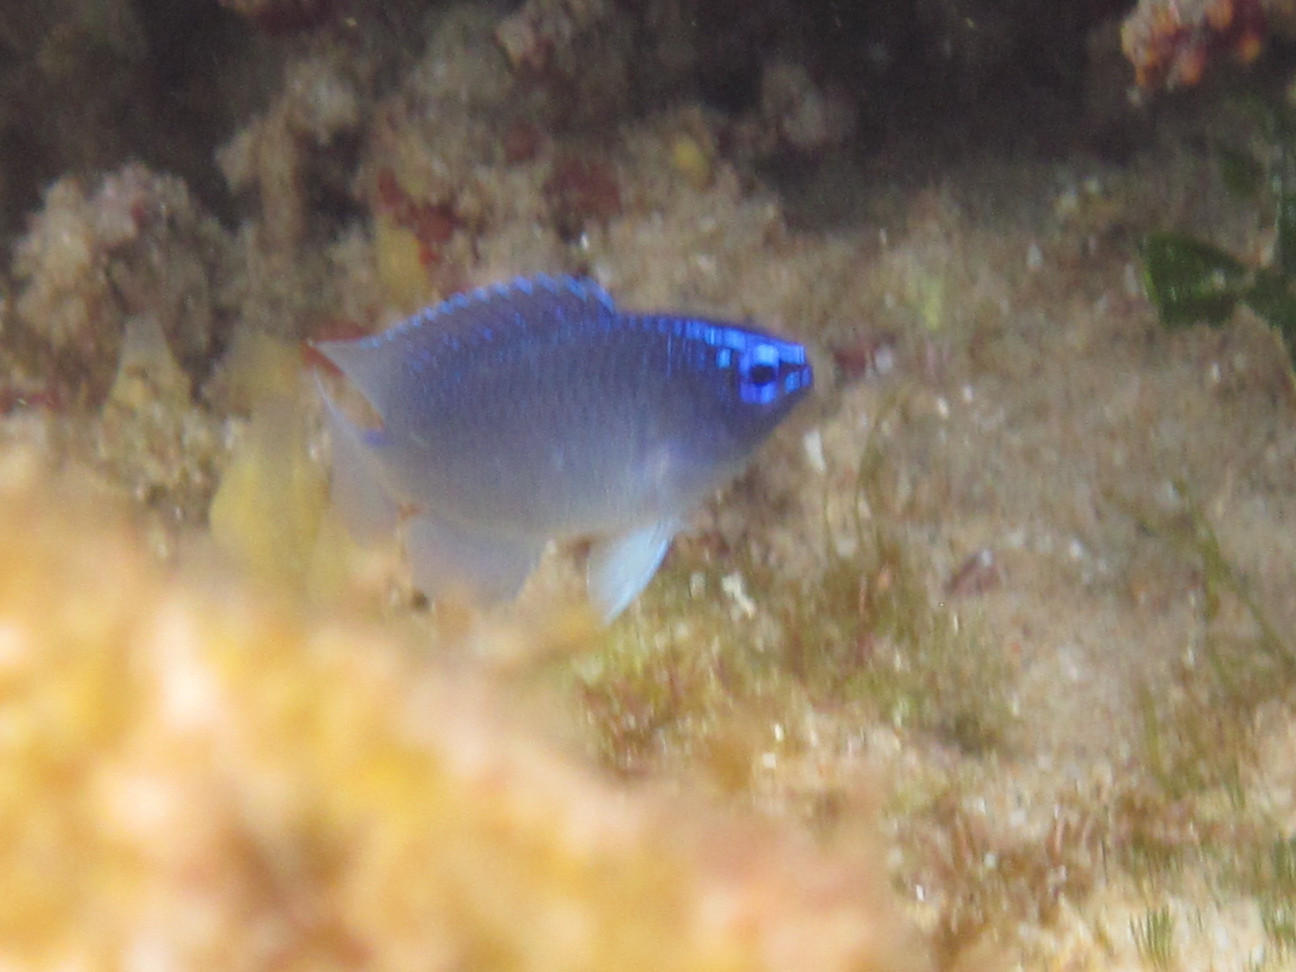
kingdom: Animalia
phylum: Chordata
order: Perciformes
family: Pomacentridae
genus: Chrysiptera
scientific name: Chrysiptera glauca
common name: Grey demoiselle
